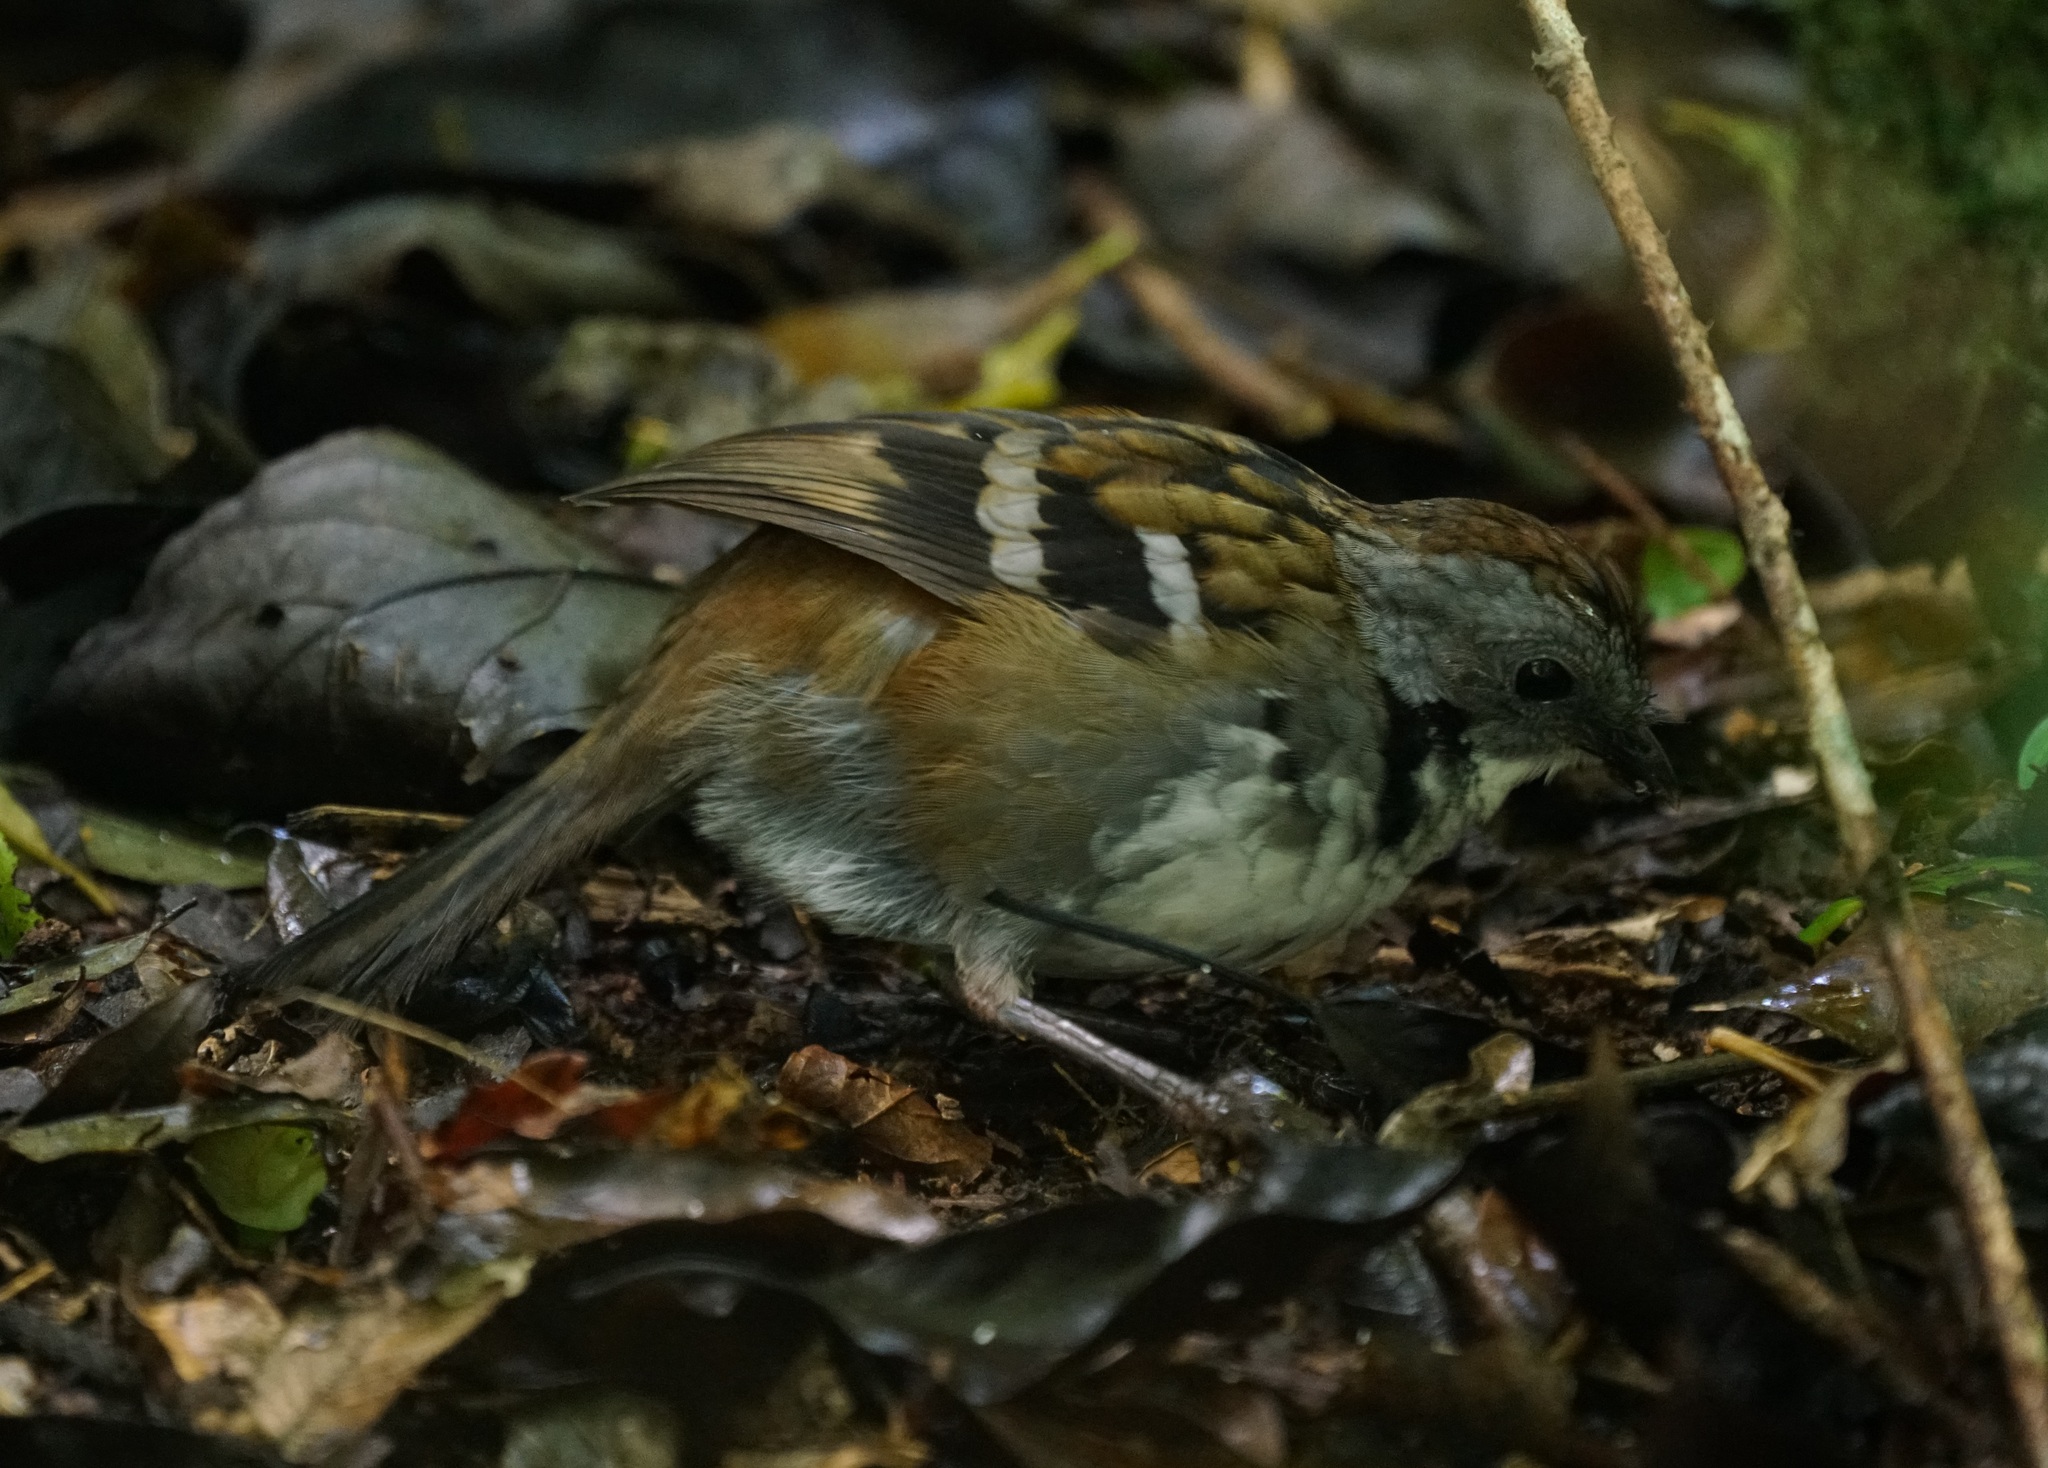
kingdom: Animalia
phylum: Chordata
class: Aves
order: Passeriformes
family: Orthonychidae
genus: Orthonyx
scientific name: Orthonyx temminckii
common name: Australian logrunner
